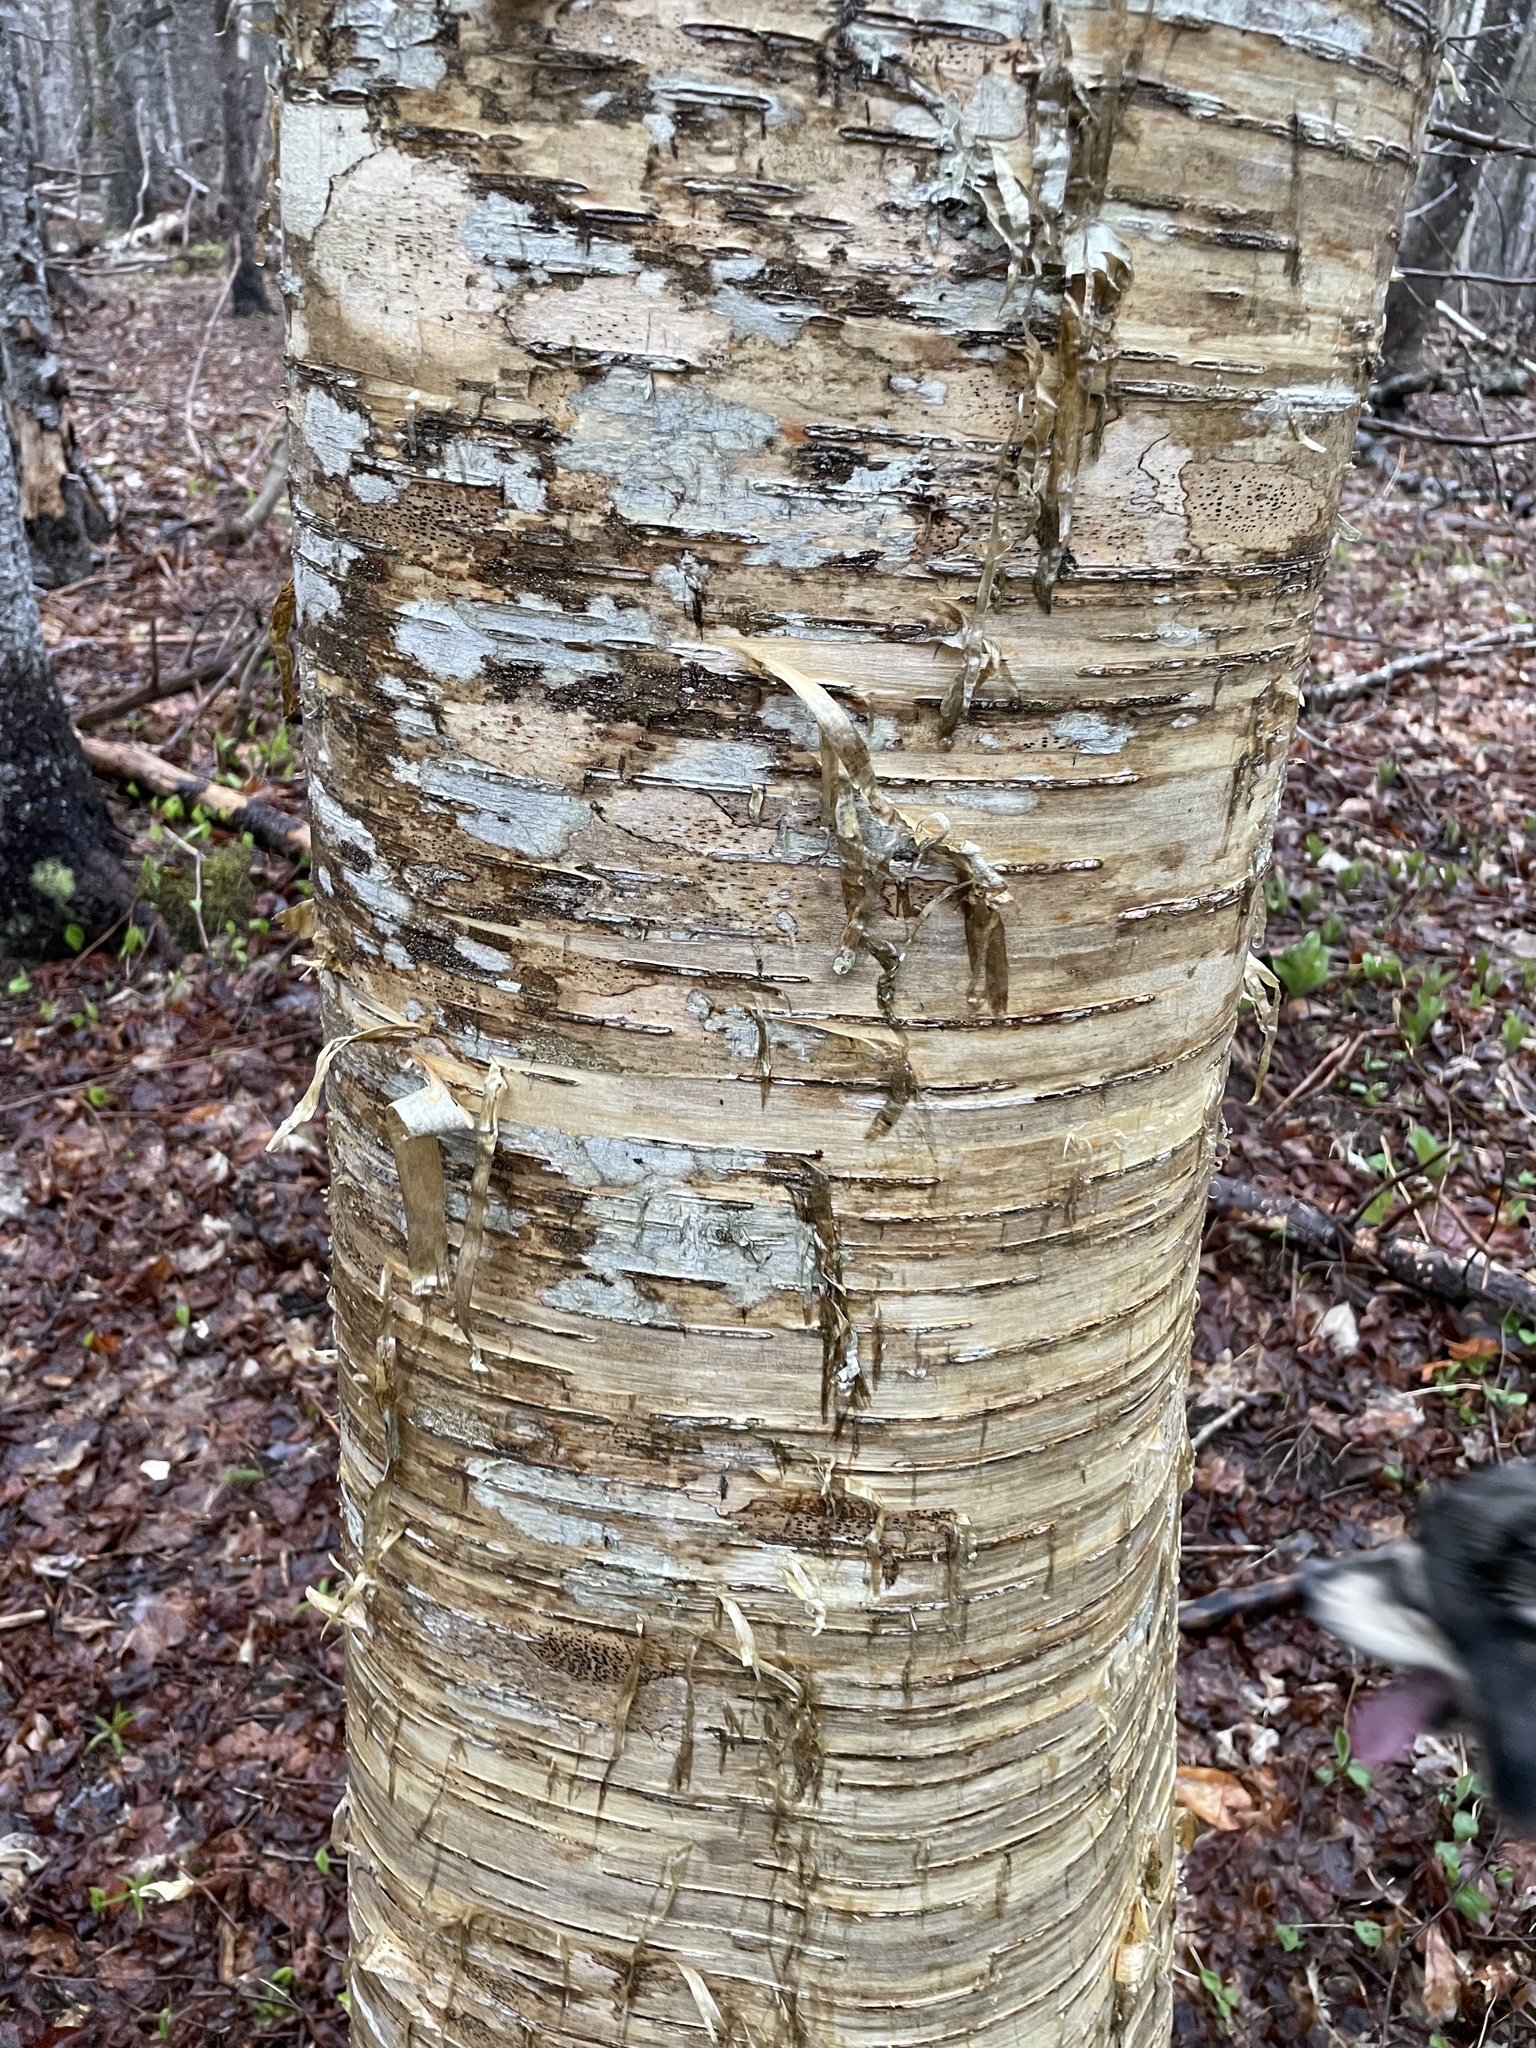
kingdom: Plantae
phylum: Tracheophyta
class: Magnoliopsida
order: Fagales
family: Betulaceae
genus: Betula
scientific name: Betula alleghaniensis
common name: Yellow birch
